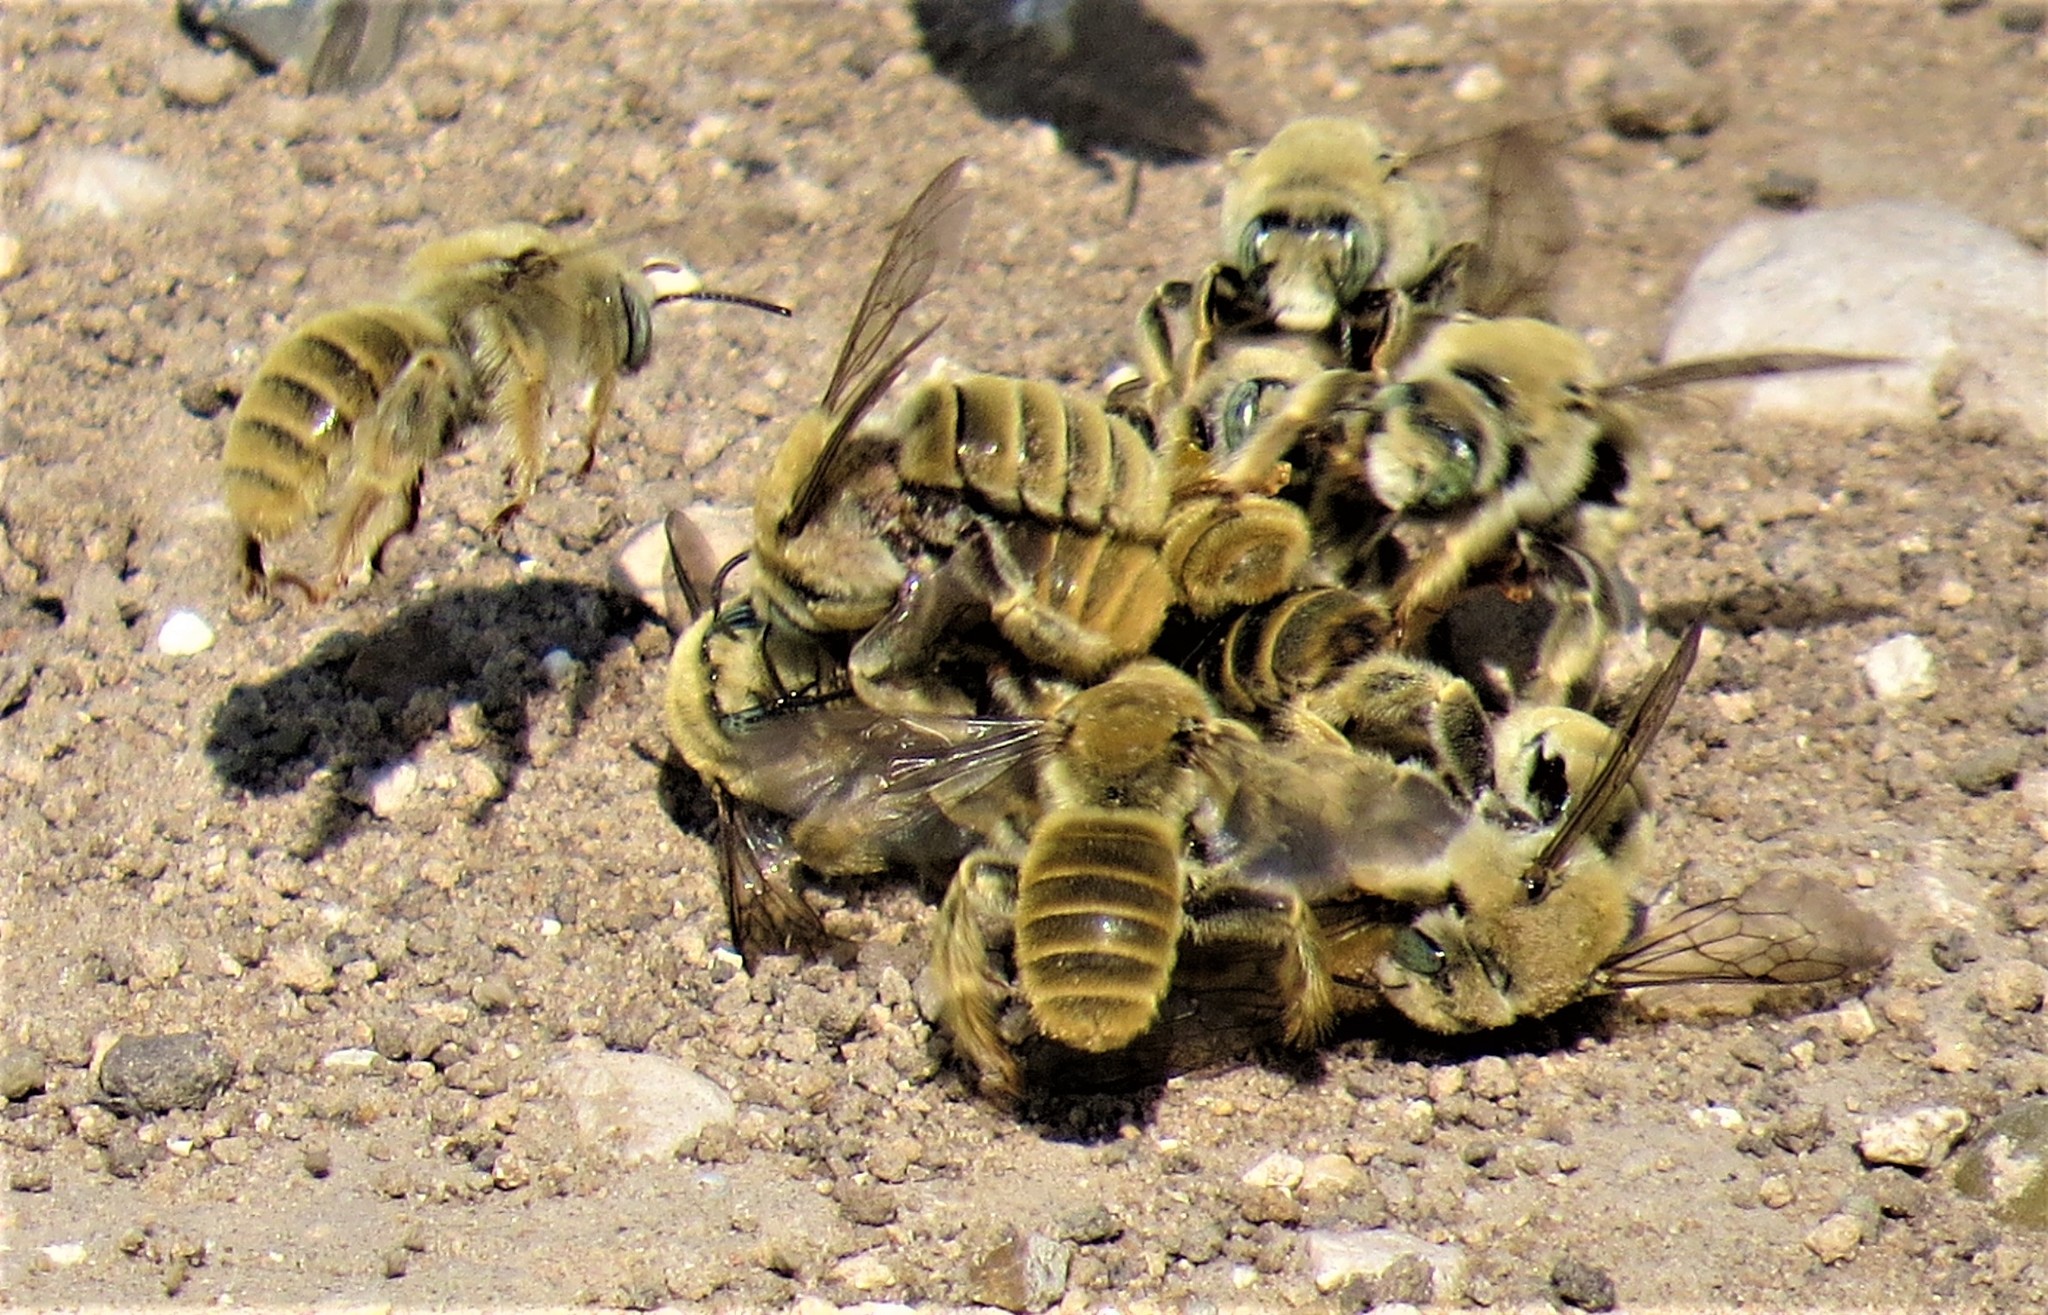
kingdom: Animalia
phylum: Arthropoda
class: Insecta
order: Hymenoptera
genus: Coquillettapis
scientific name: Coquillettapis
